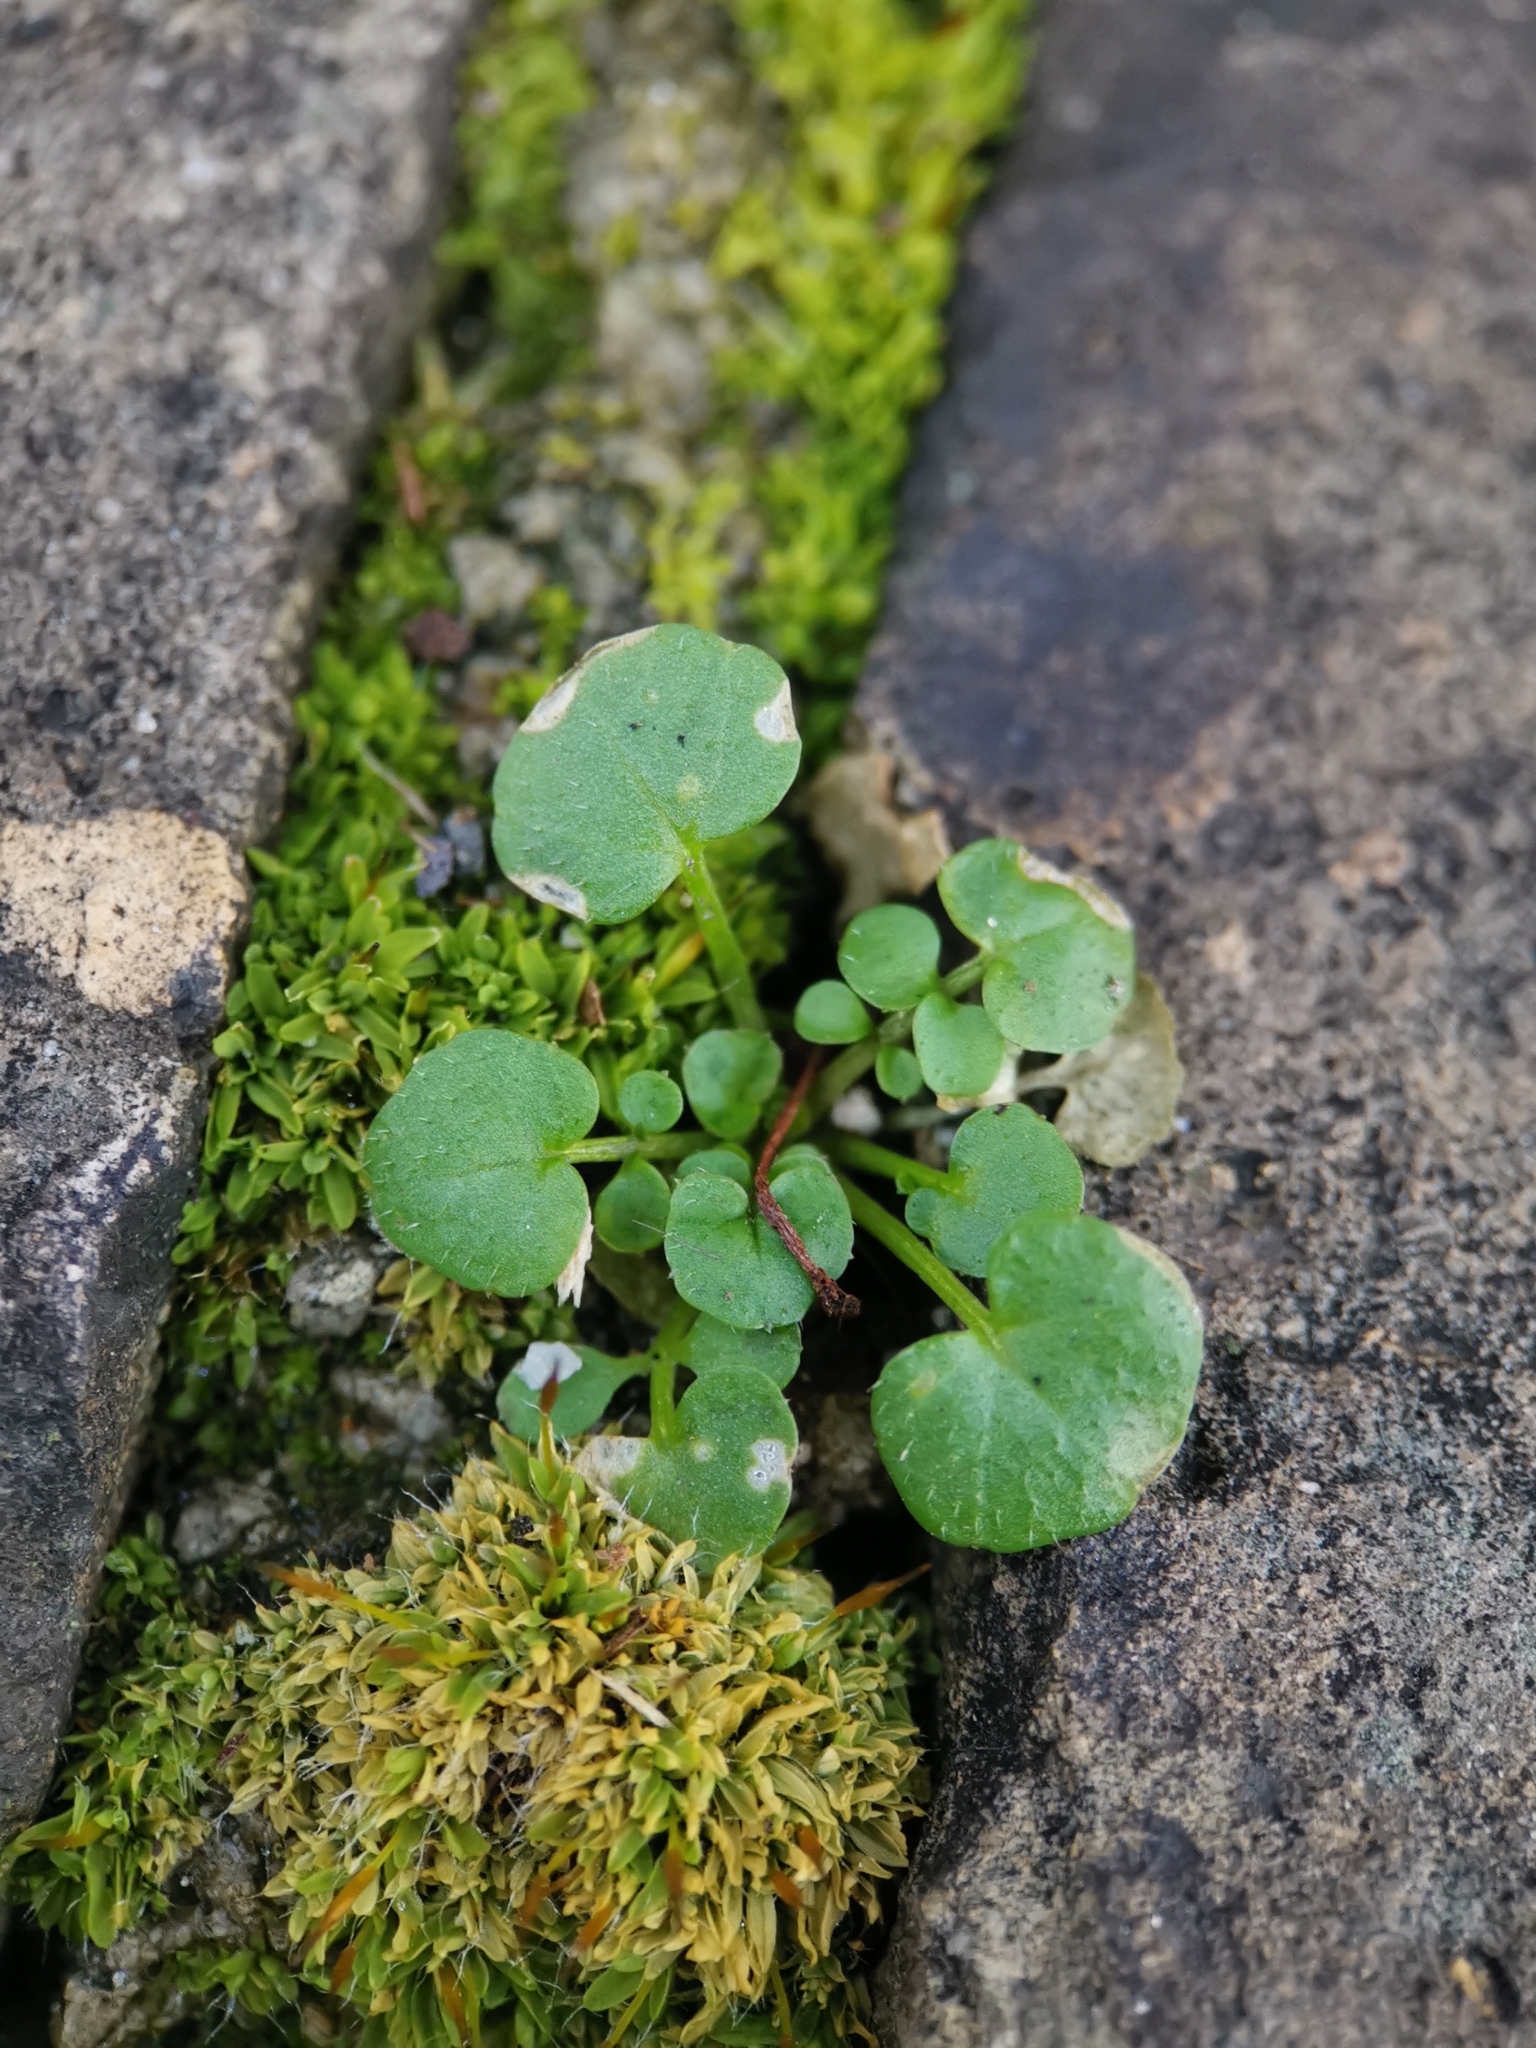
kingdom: Plantae
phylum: Tracheophyta
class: Magnoliopsida
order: Brassicales
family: Brassicaceae
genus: Cardamine
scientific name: Cardamine hirsuta
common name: Hairy bittercress
